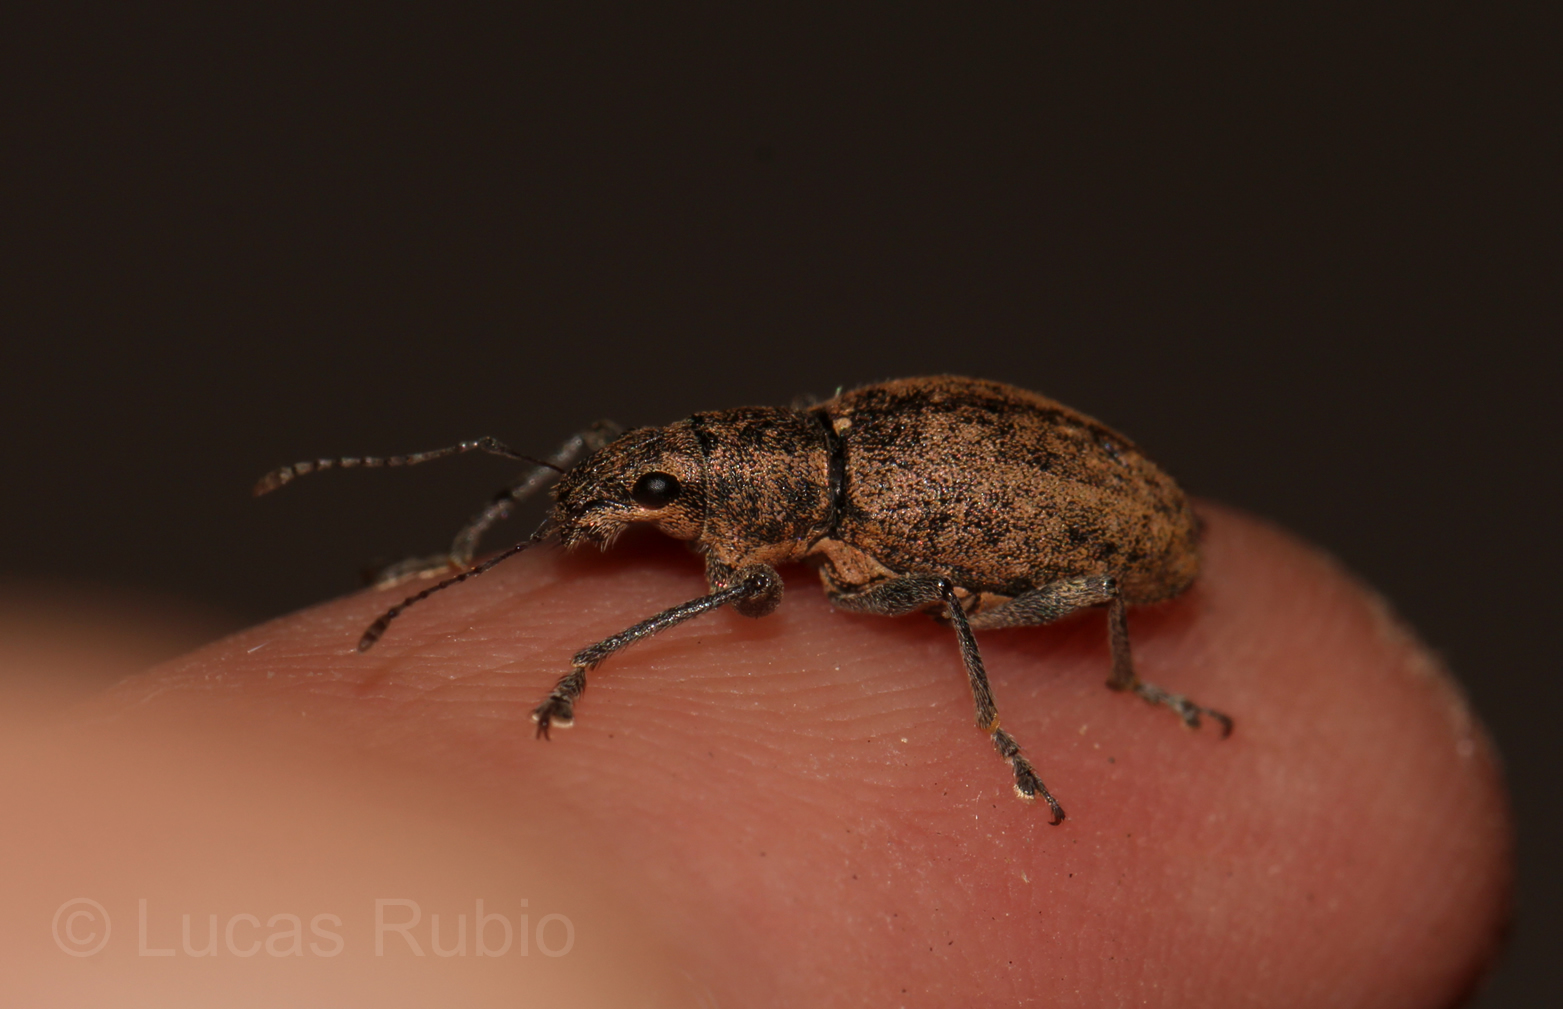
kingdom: Animalia
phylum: Arthropoda
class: Insecta
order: Coleoptera
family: Curculionidae
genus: Naupactus
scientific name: Naupactus versatilis
